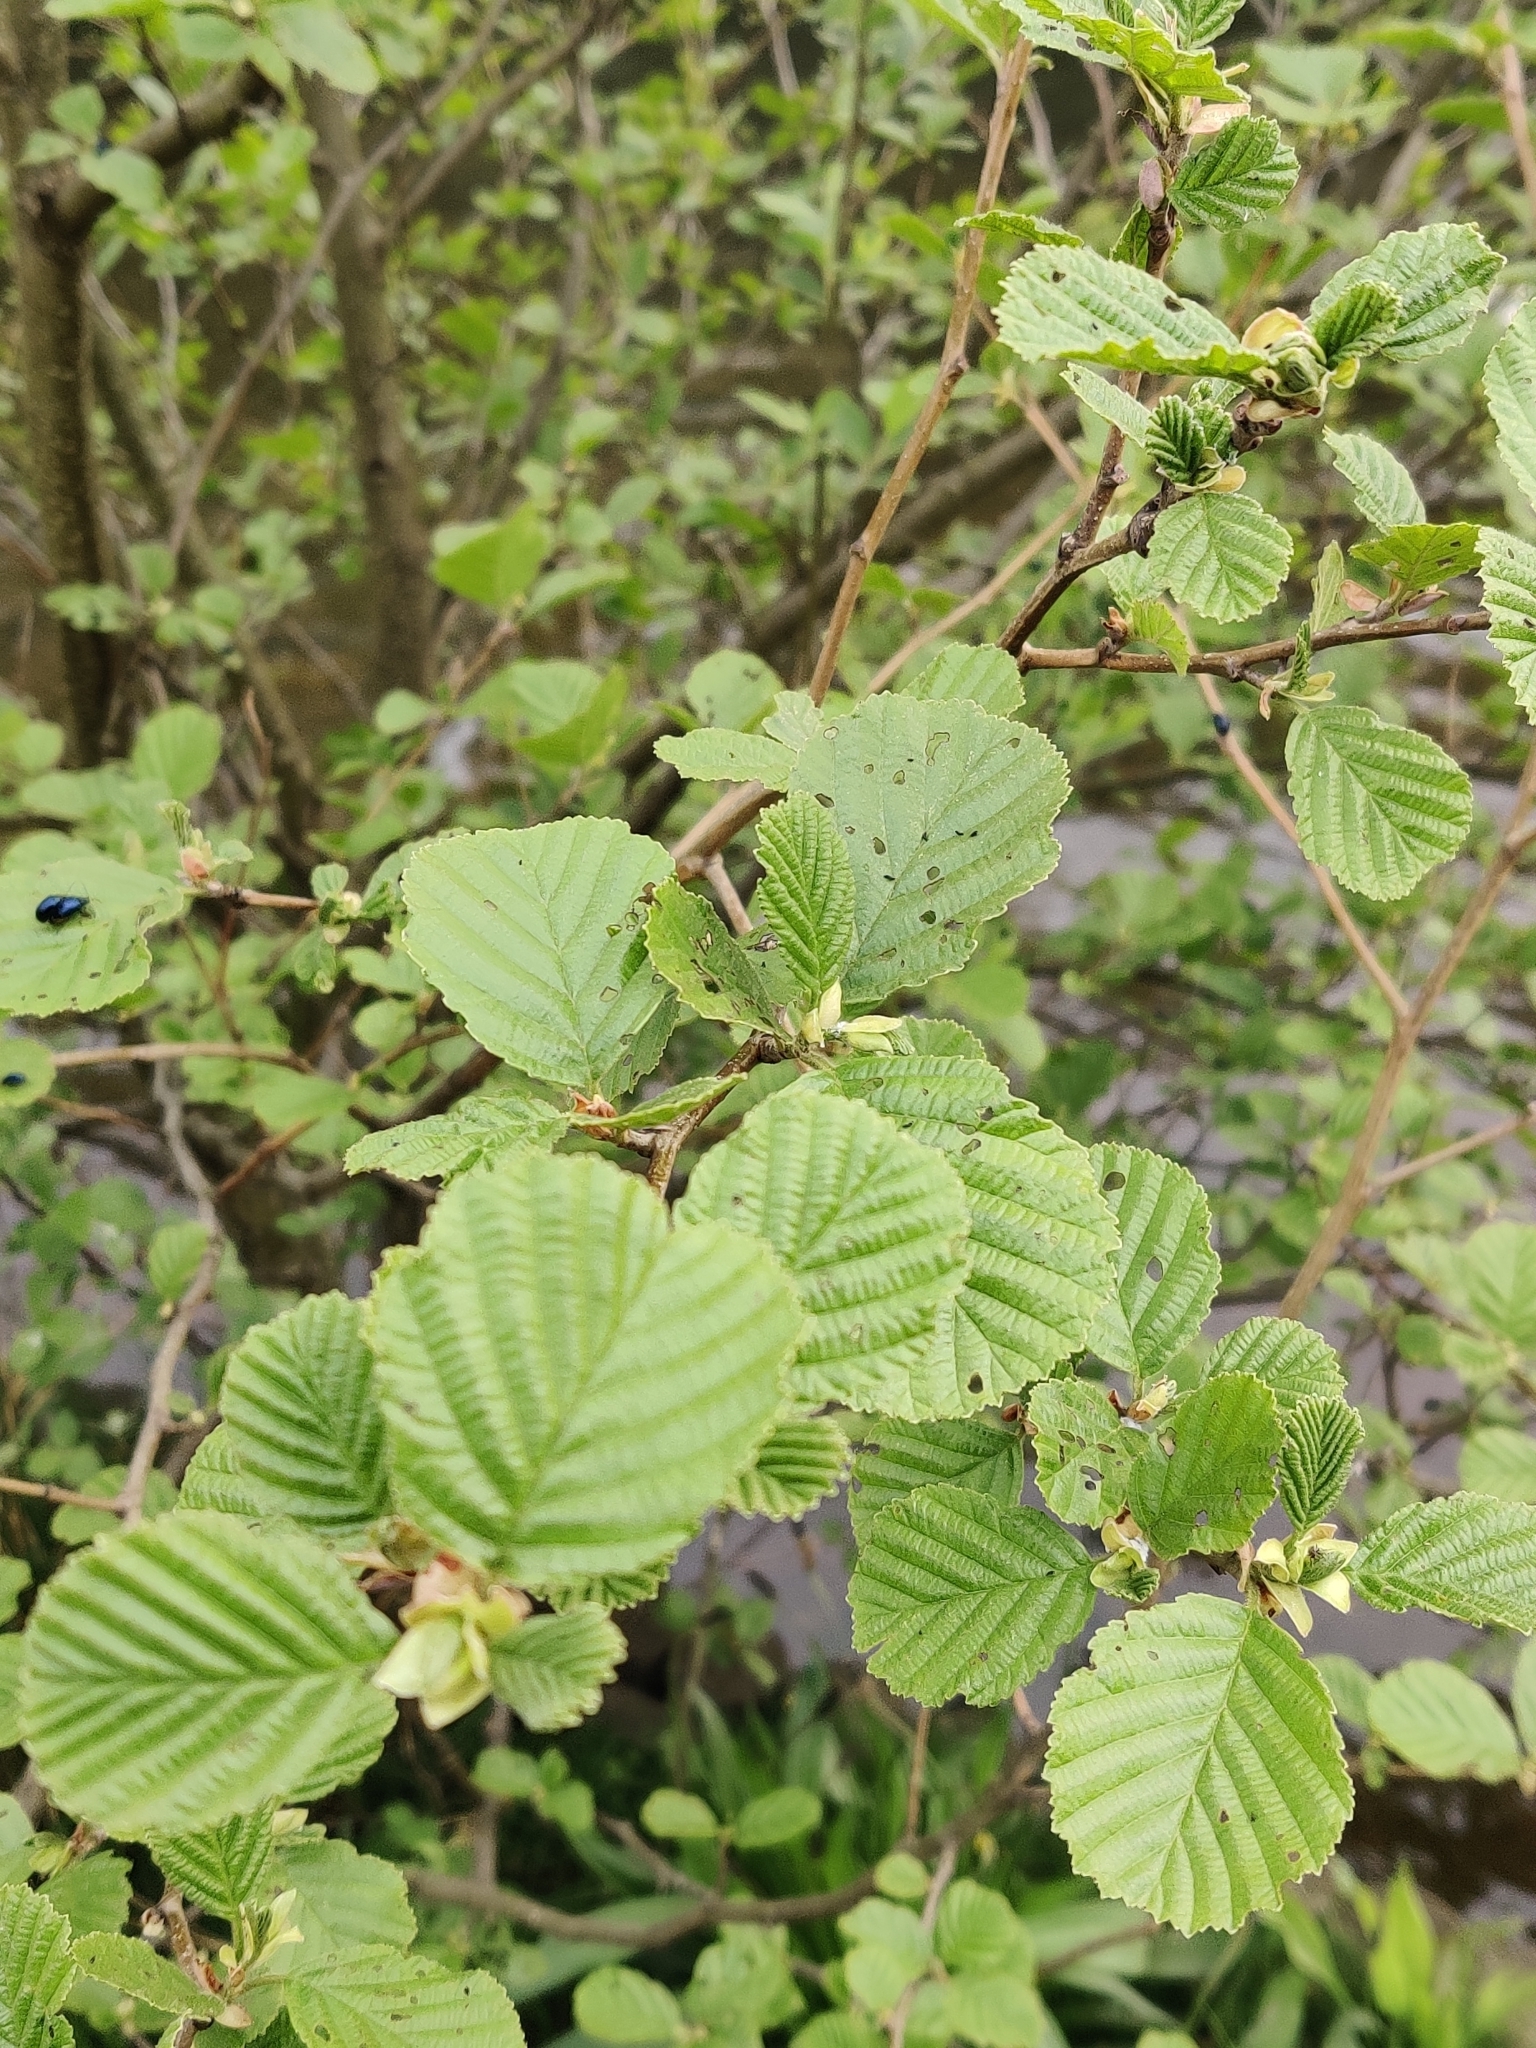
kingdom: Plantae
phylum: Tracheophyta
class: Magnoliopsida
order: Fagales
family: Betulaceae
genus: Alnus
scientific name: Alnus glutinosa
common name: Black alder
